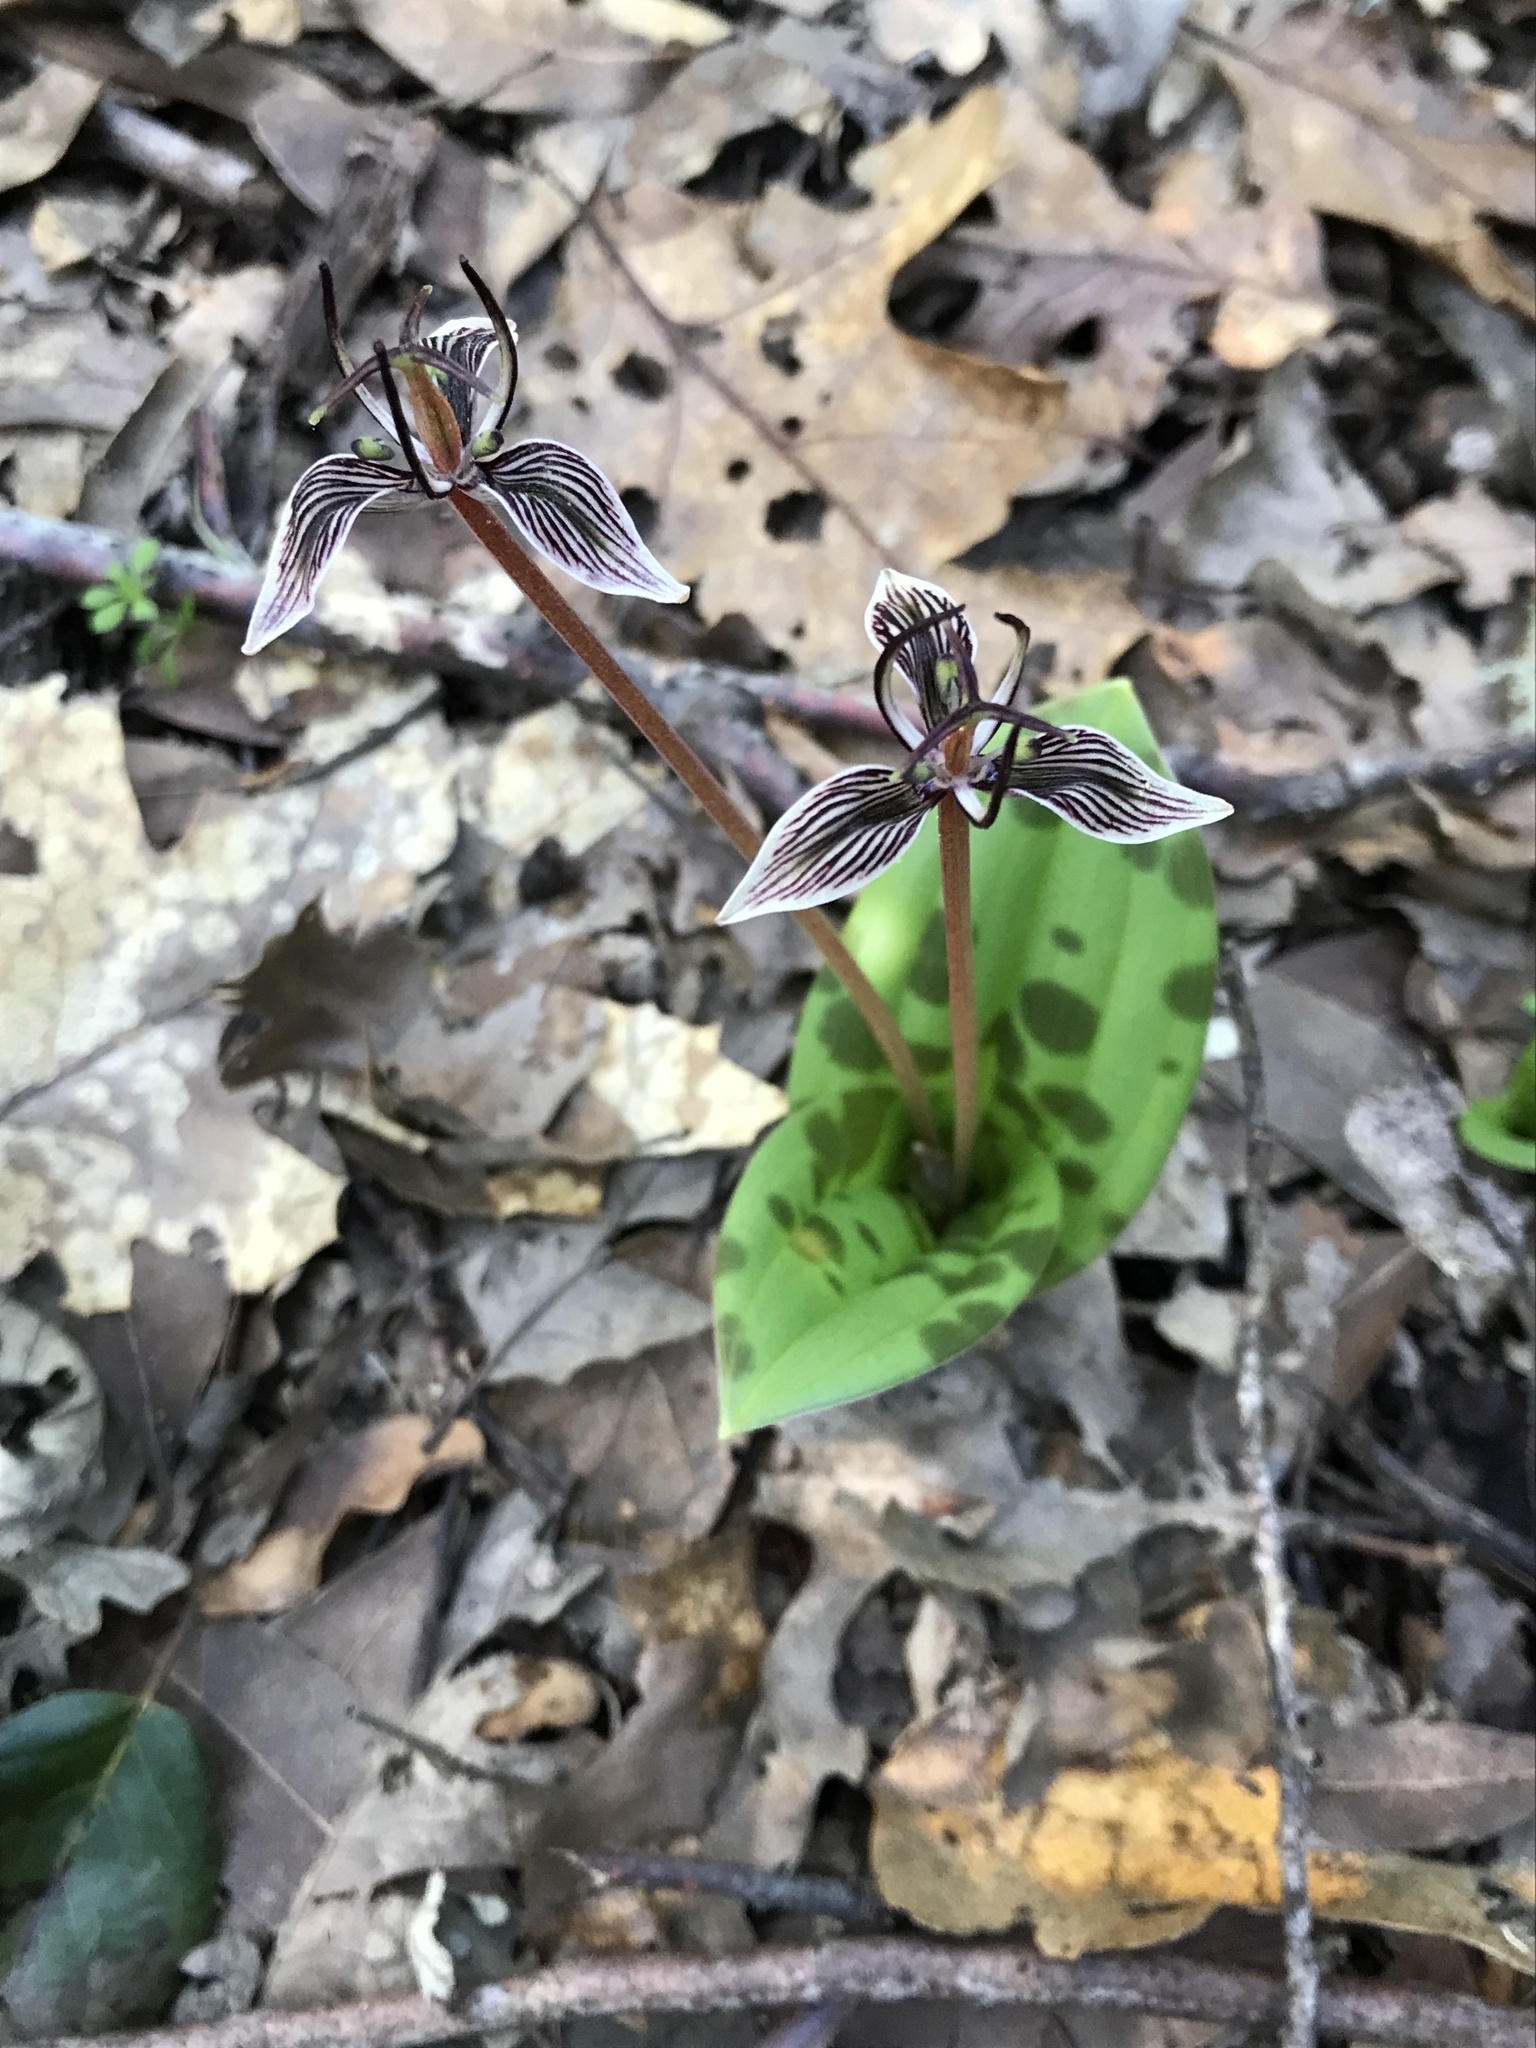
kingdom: Plantae
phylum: Tracheophyta
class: Liliopsida
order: Liliales
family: Liliaceae
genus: Scoliopus
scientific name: Scoliopus bigelovii
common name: Foetid adder's-tongue
